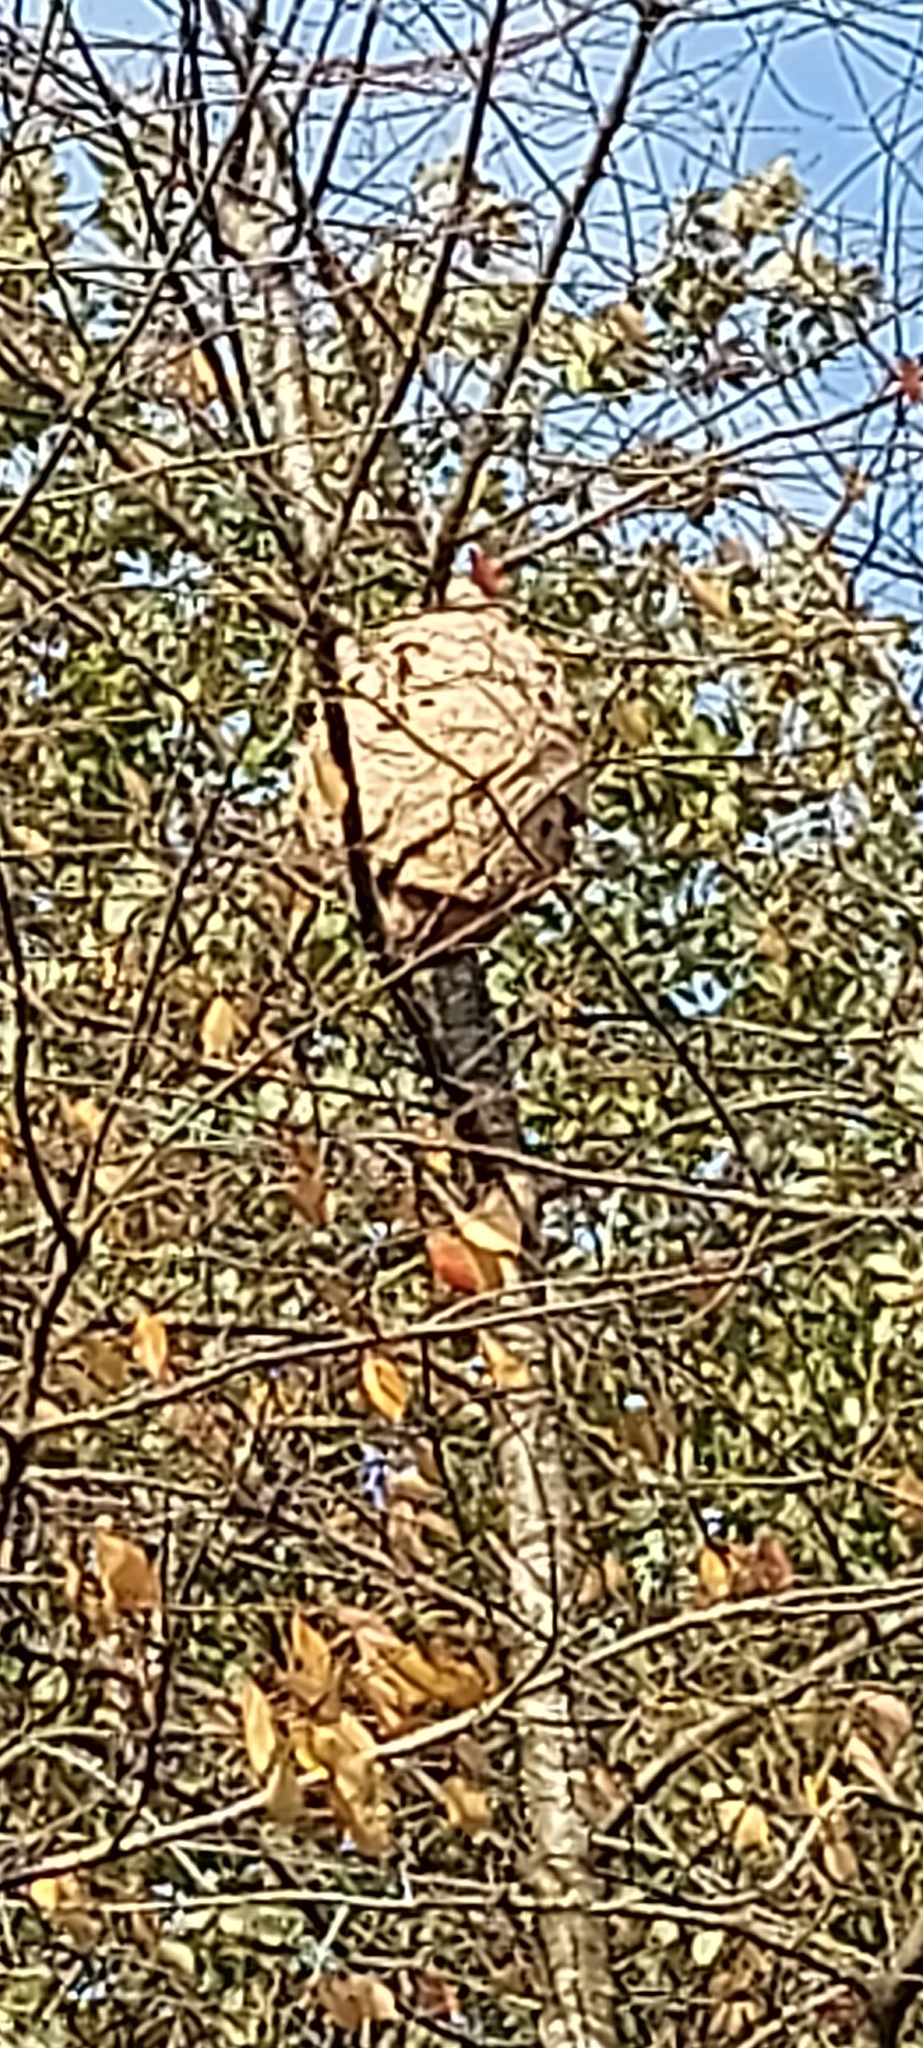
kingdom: Animalia
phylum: Arthropoda
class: Insecta
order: Hymenoptera
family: Vespidae
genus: Vespa
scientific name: Vespa velutina
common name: Asian hornet
